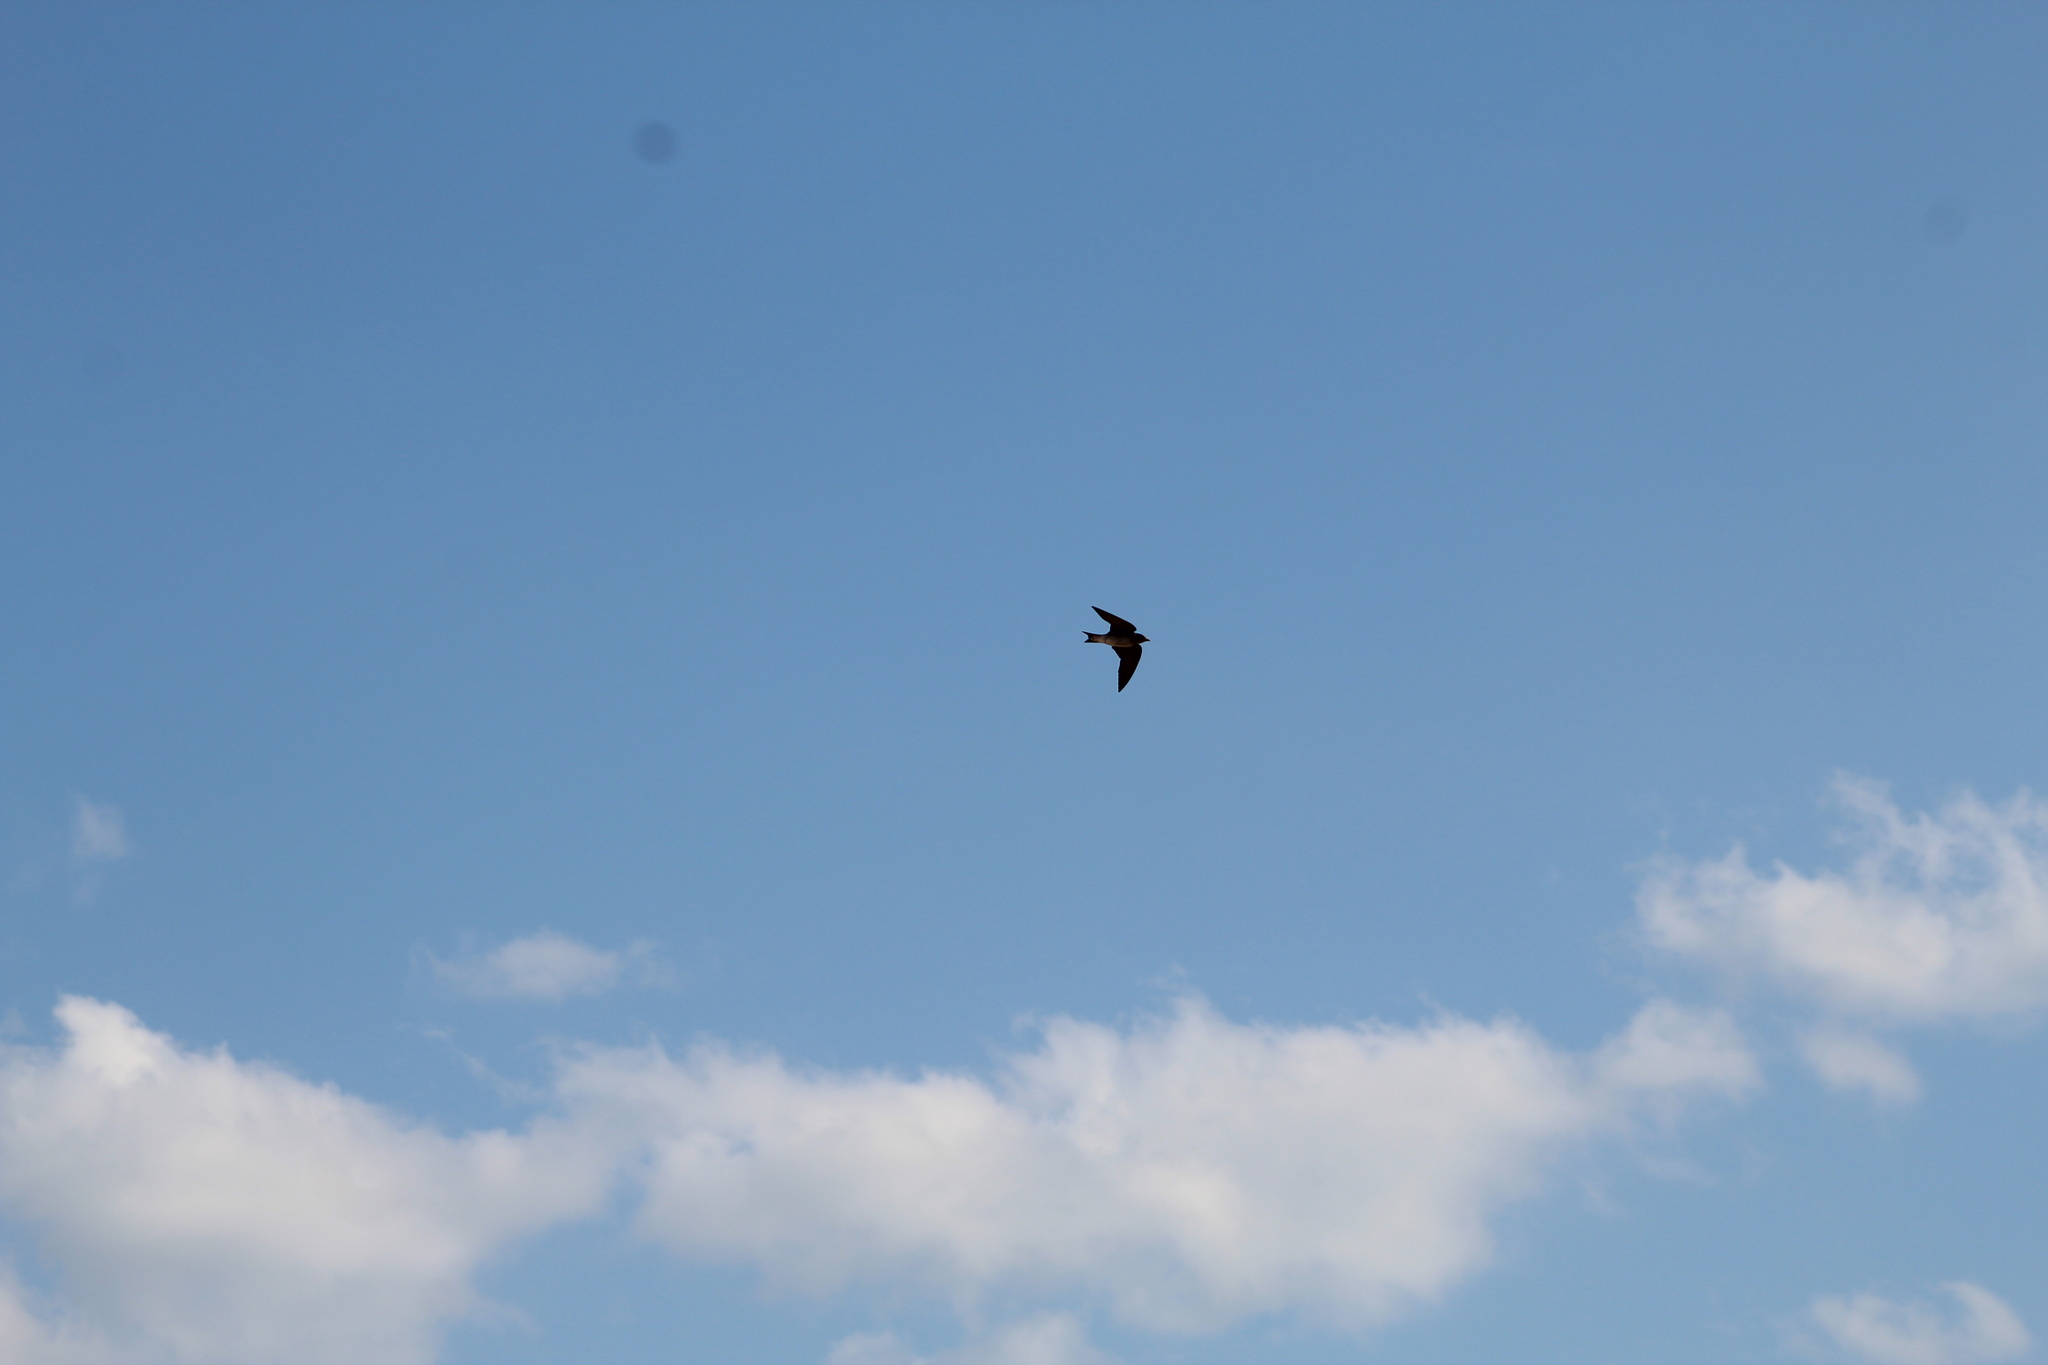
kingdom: Animalia
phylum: Chordata
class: Aves
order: Passeriformes
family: Hirundinidae
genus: Progne
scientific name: Progne subis
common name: Purple martin
